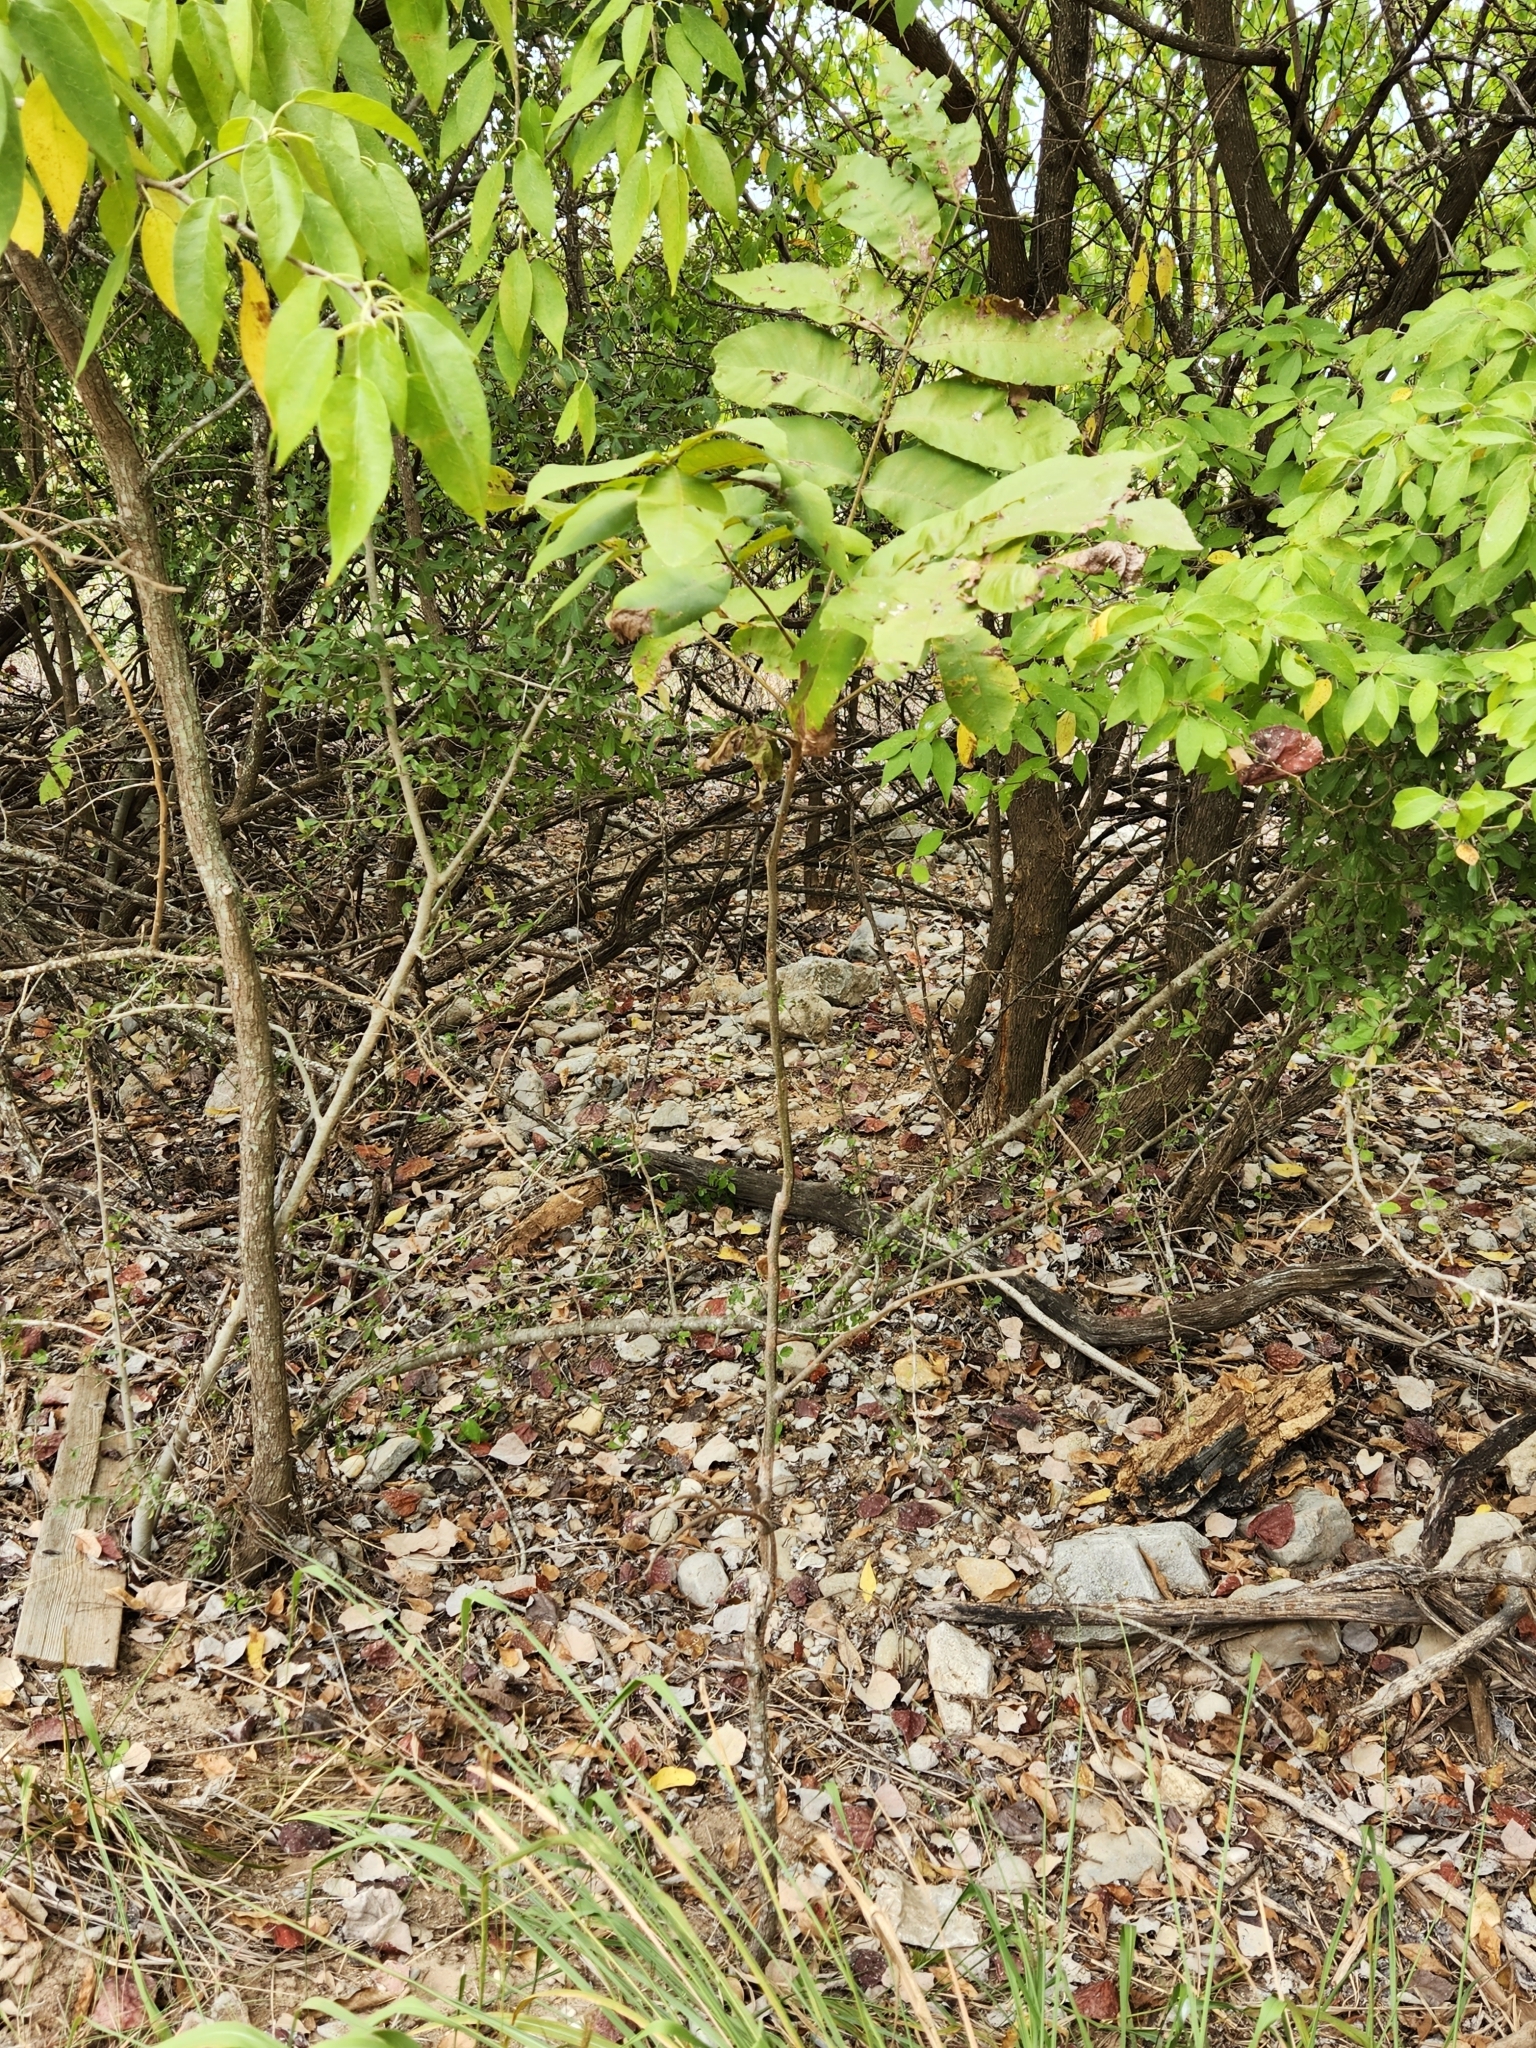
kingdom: Plantae
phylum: Tracheophyta
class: Magnoliopsida
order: Fagales
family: Juglandaceae
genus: Carya
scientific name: Carya illinoinensis
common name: Pecan
